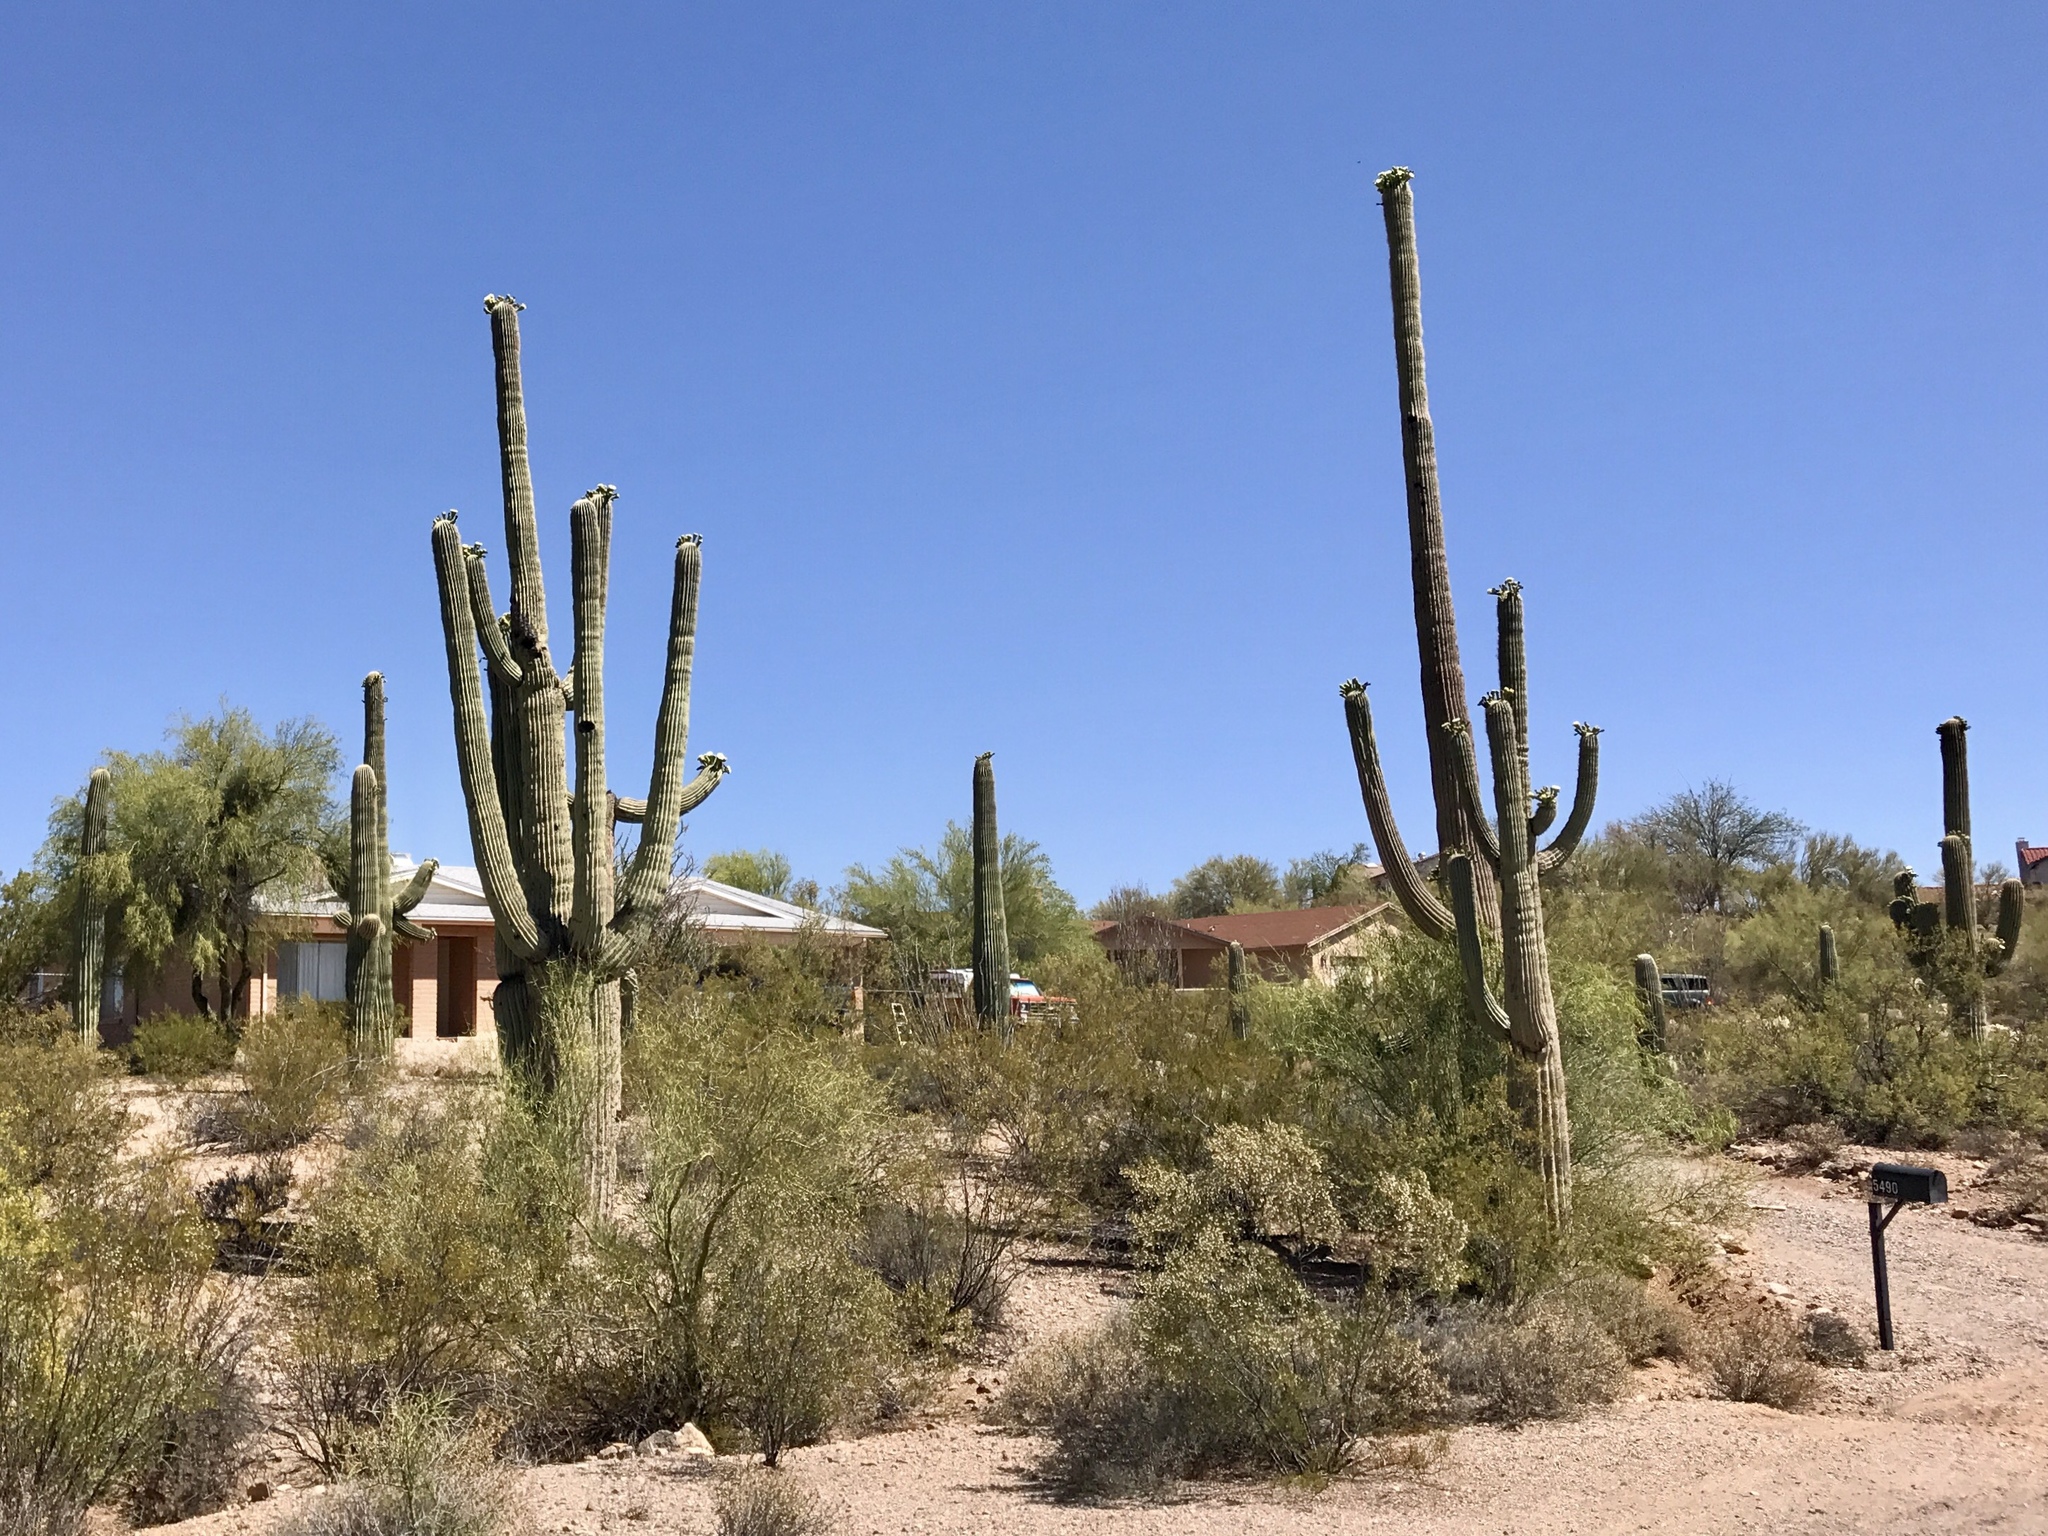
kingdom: Plantae
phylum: Tracheophyta
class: Magnoliopsida
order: Caryophyllales
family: Cactaceae
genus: Carnegiea
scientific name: Carnegiea gigantea
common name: Saguaro
